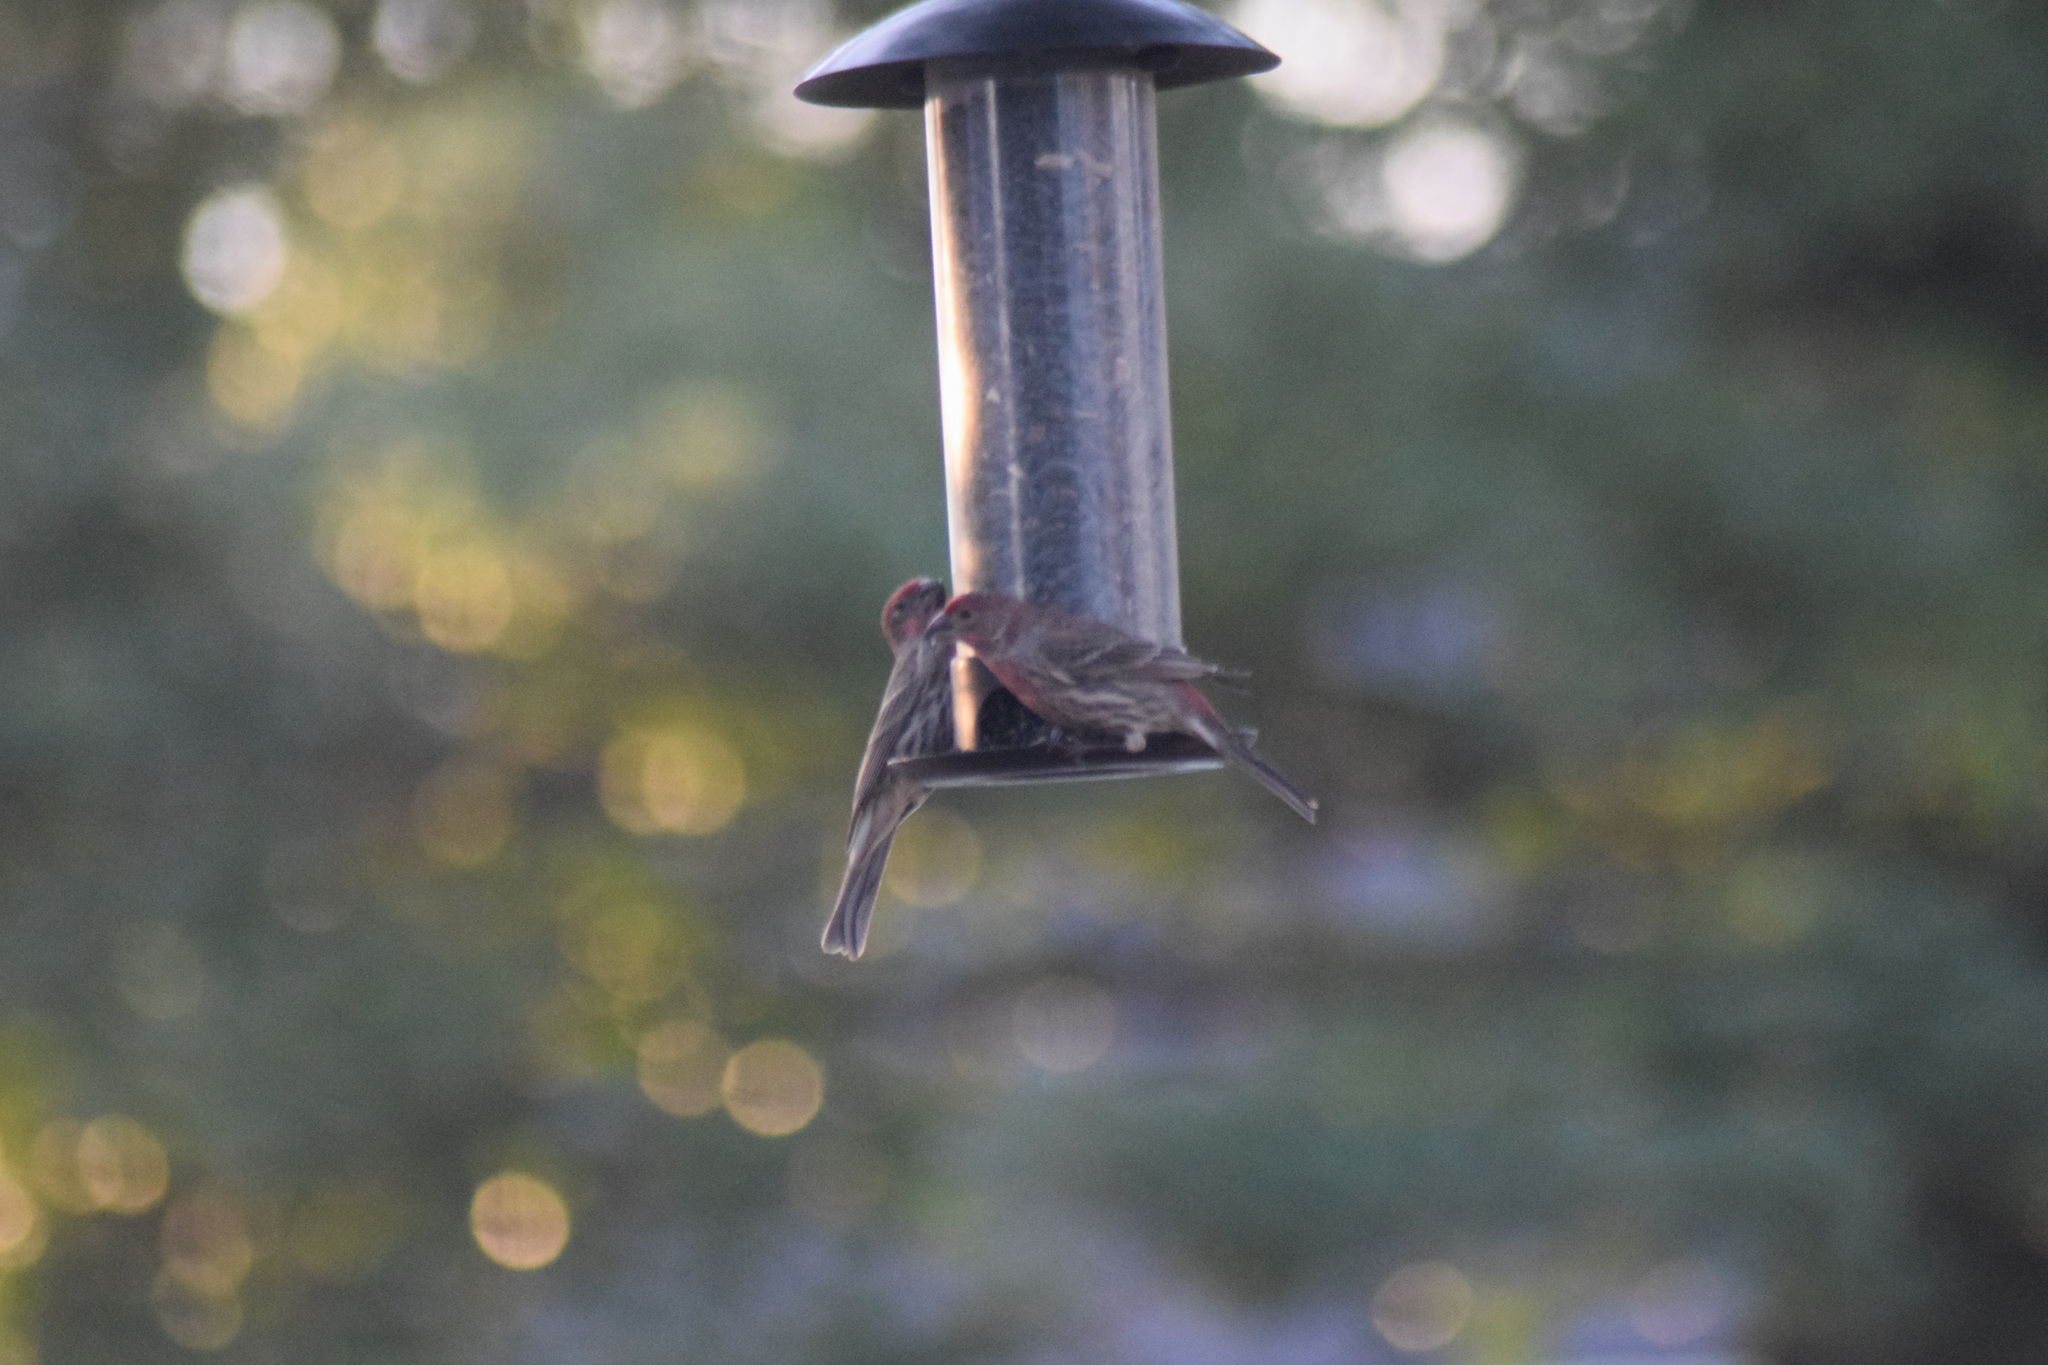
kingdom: Animalia
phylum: Chordata
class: Aves
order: Passeriformes
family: Fringillidae
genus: Haemorhous
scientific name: Haemorhous mexicanus
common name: House finch
